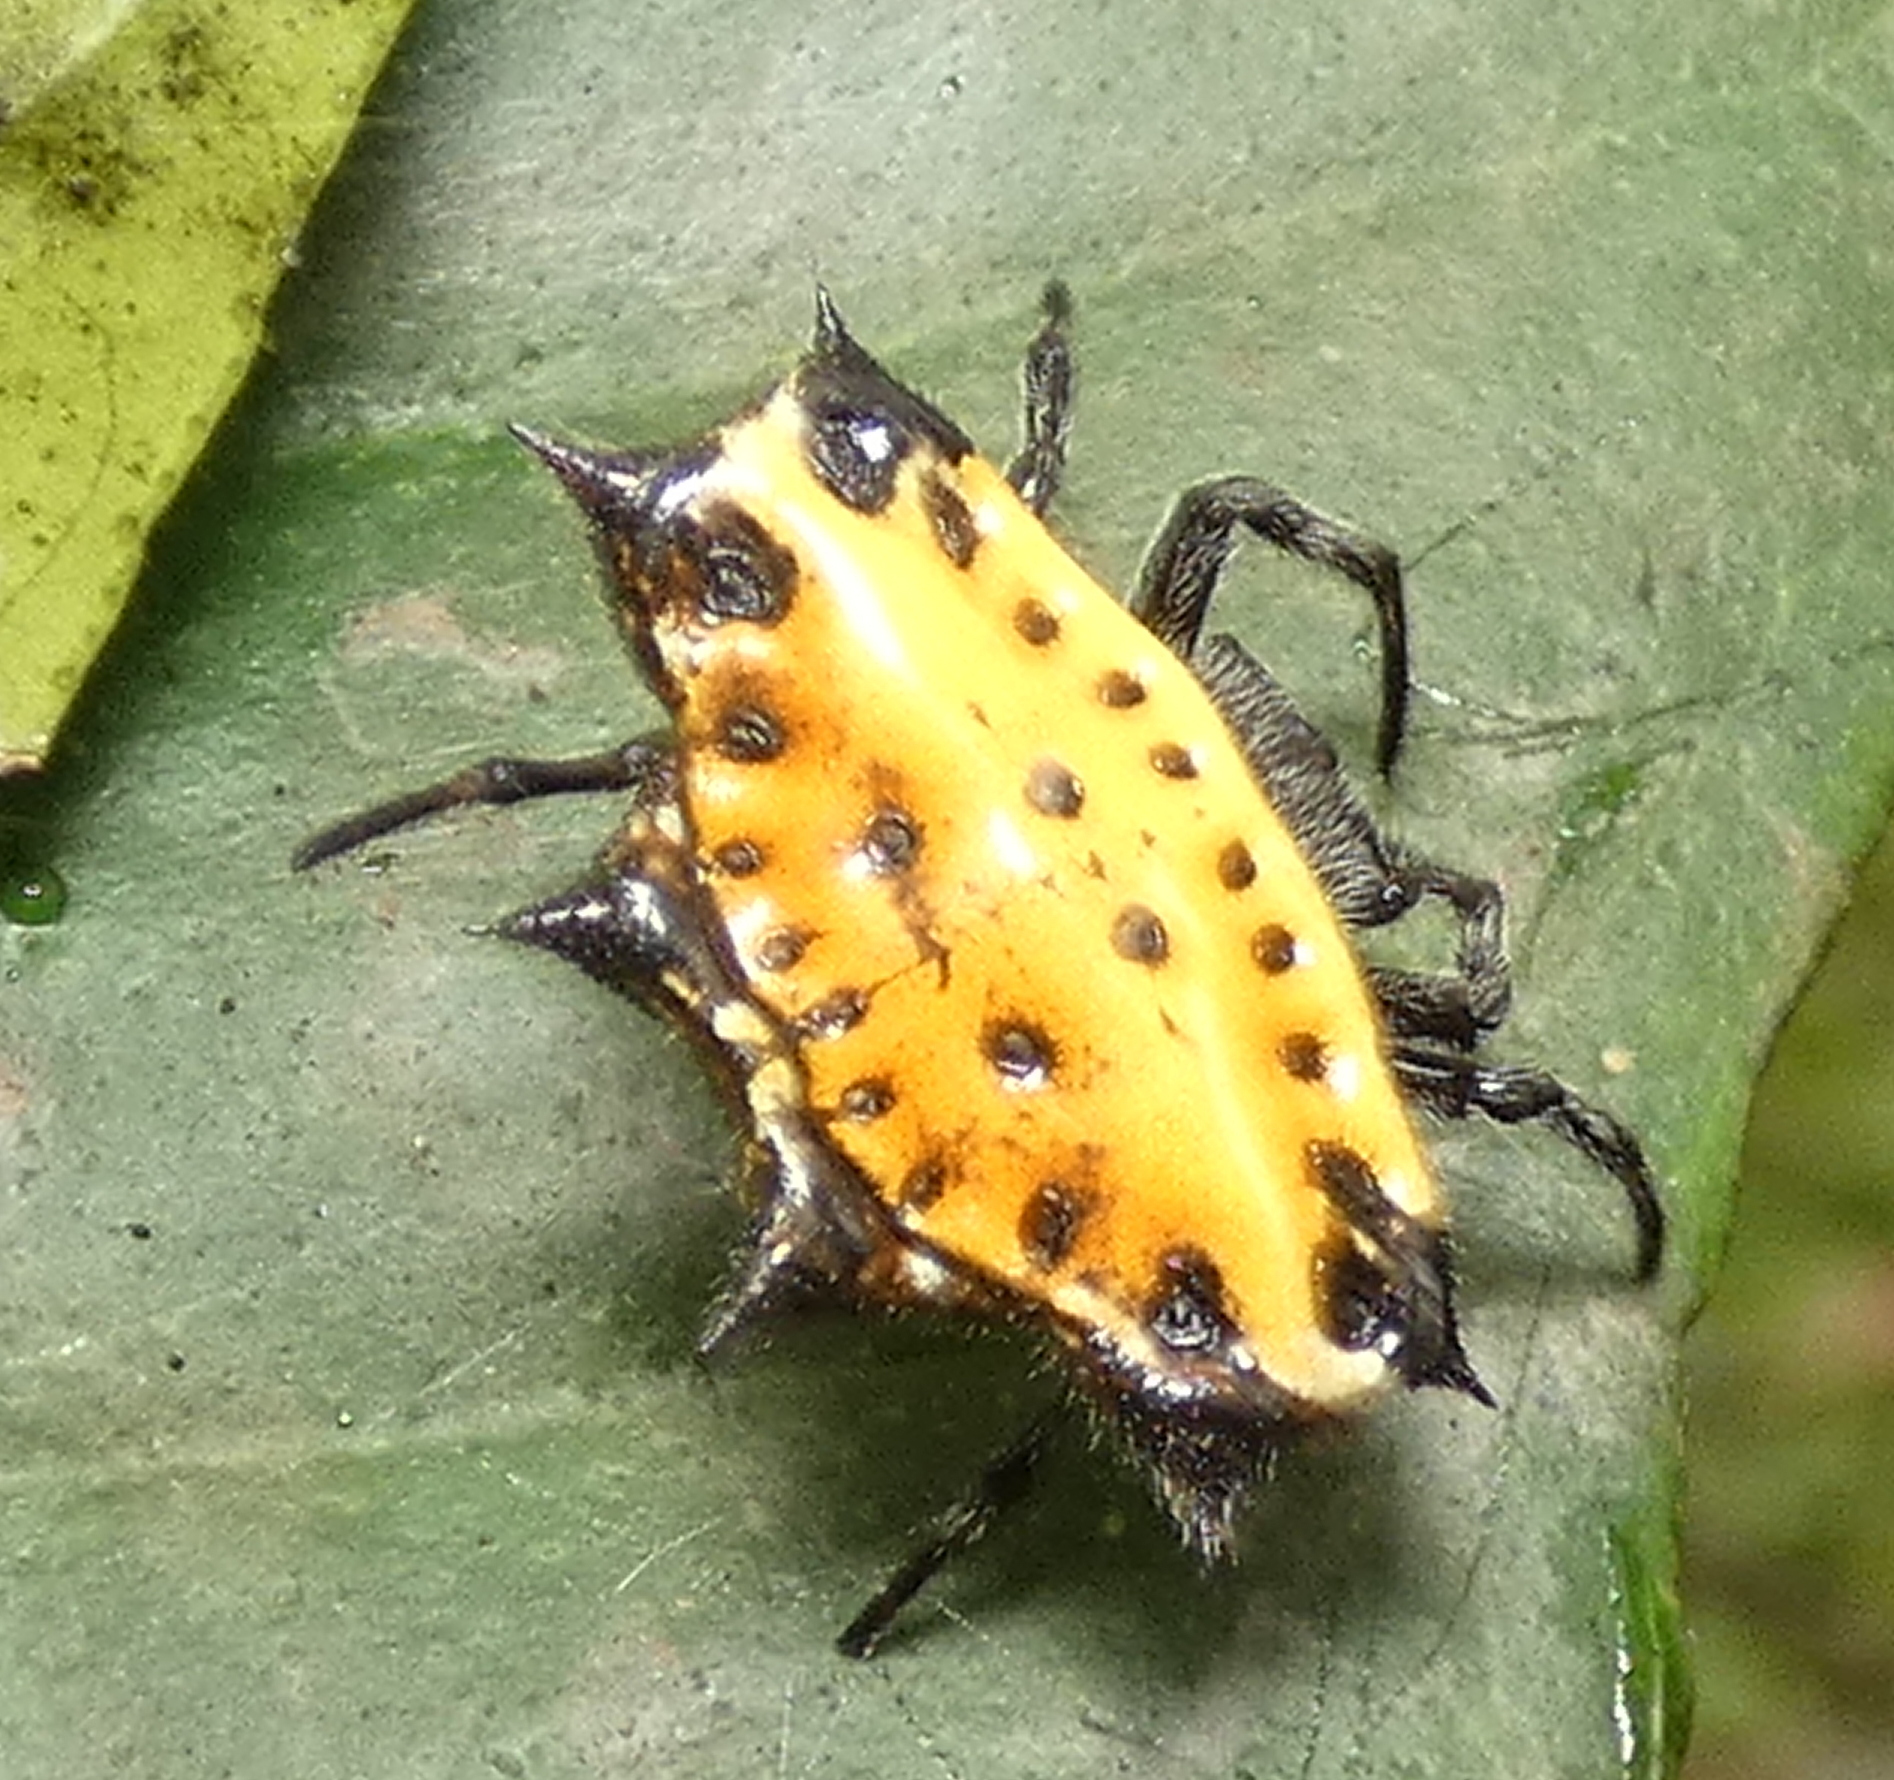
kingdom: Animalia
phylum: Arthropoda
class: Arachnida
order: Araneae
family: Araneidae
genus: Gasteracantha
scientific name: Gasteracantha cancriformis
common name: Orb weavers
